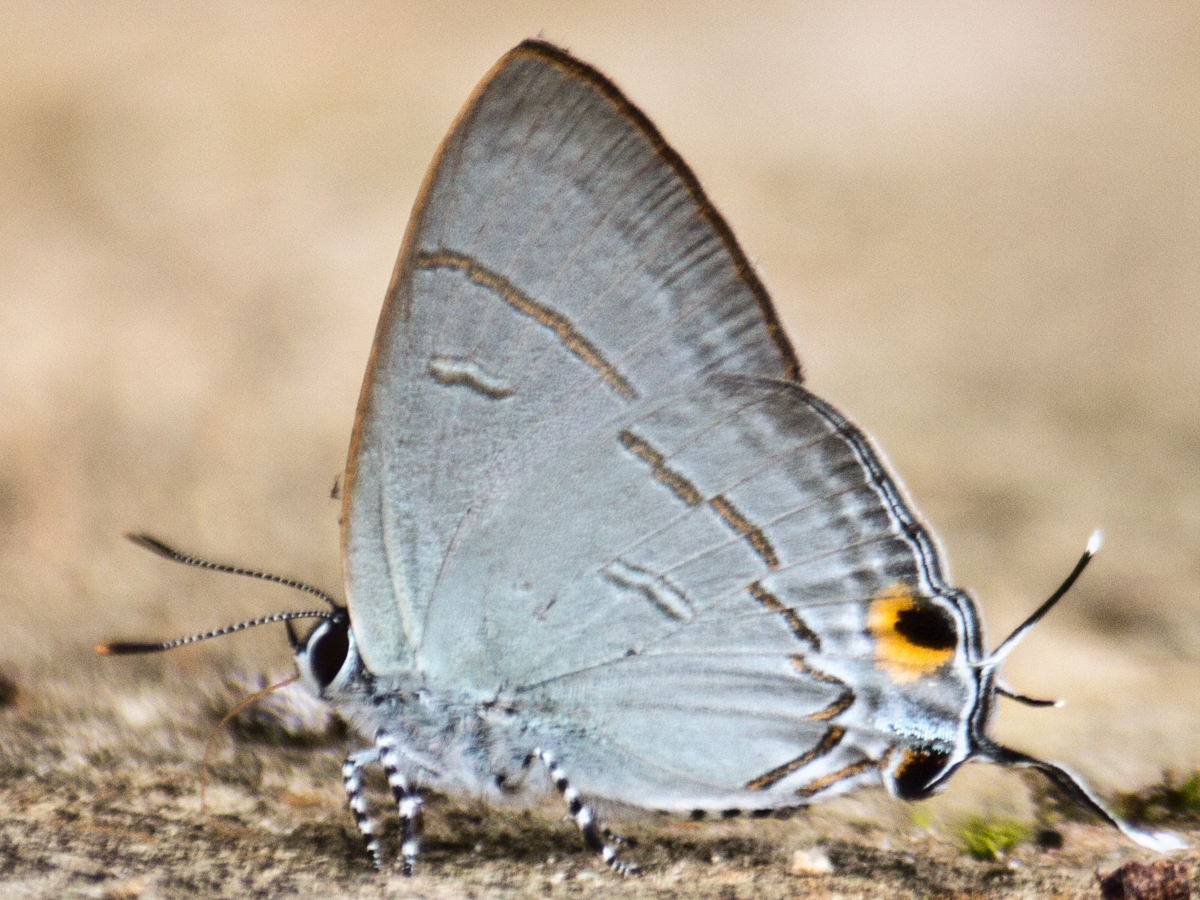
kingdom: Animalia
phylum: Arthropoda
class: Insecta
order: Lepidoptera
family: Lycaenidae
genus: Hypolycaena
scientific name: Hypolycaena erylus
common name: Common tit
